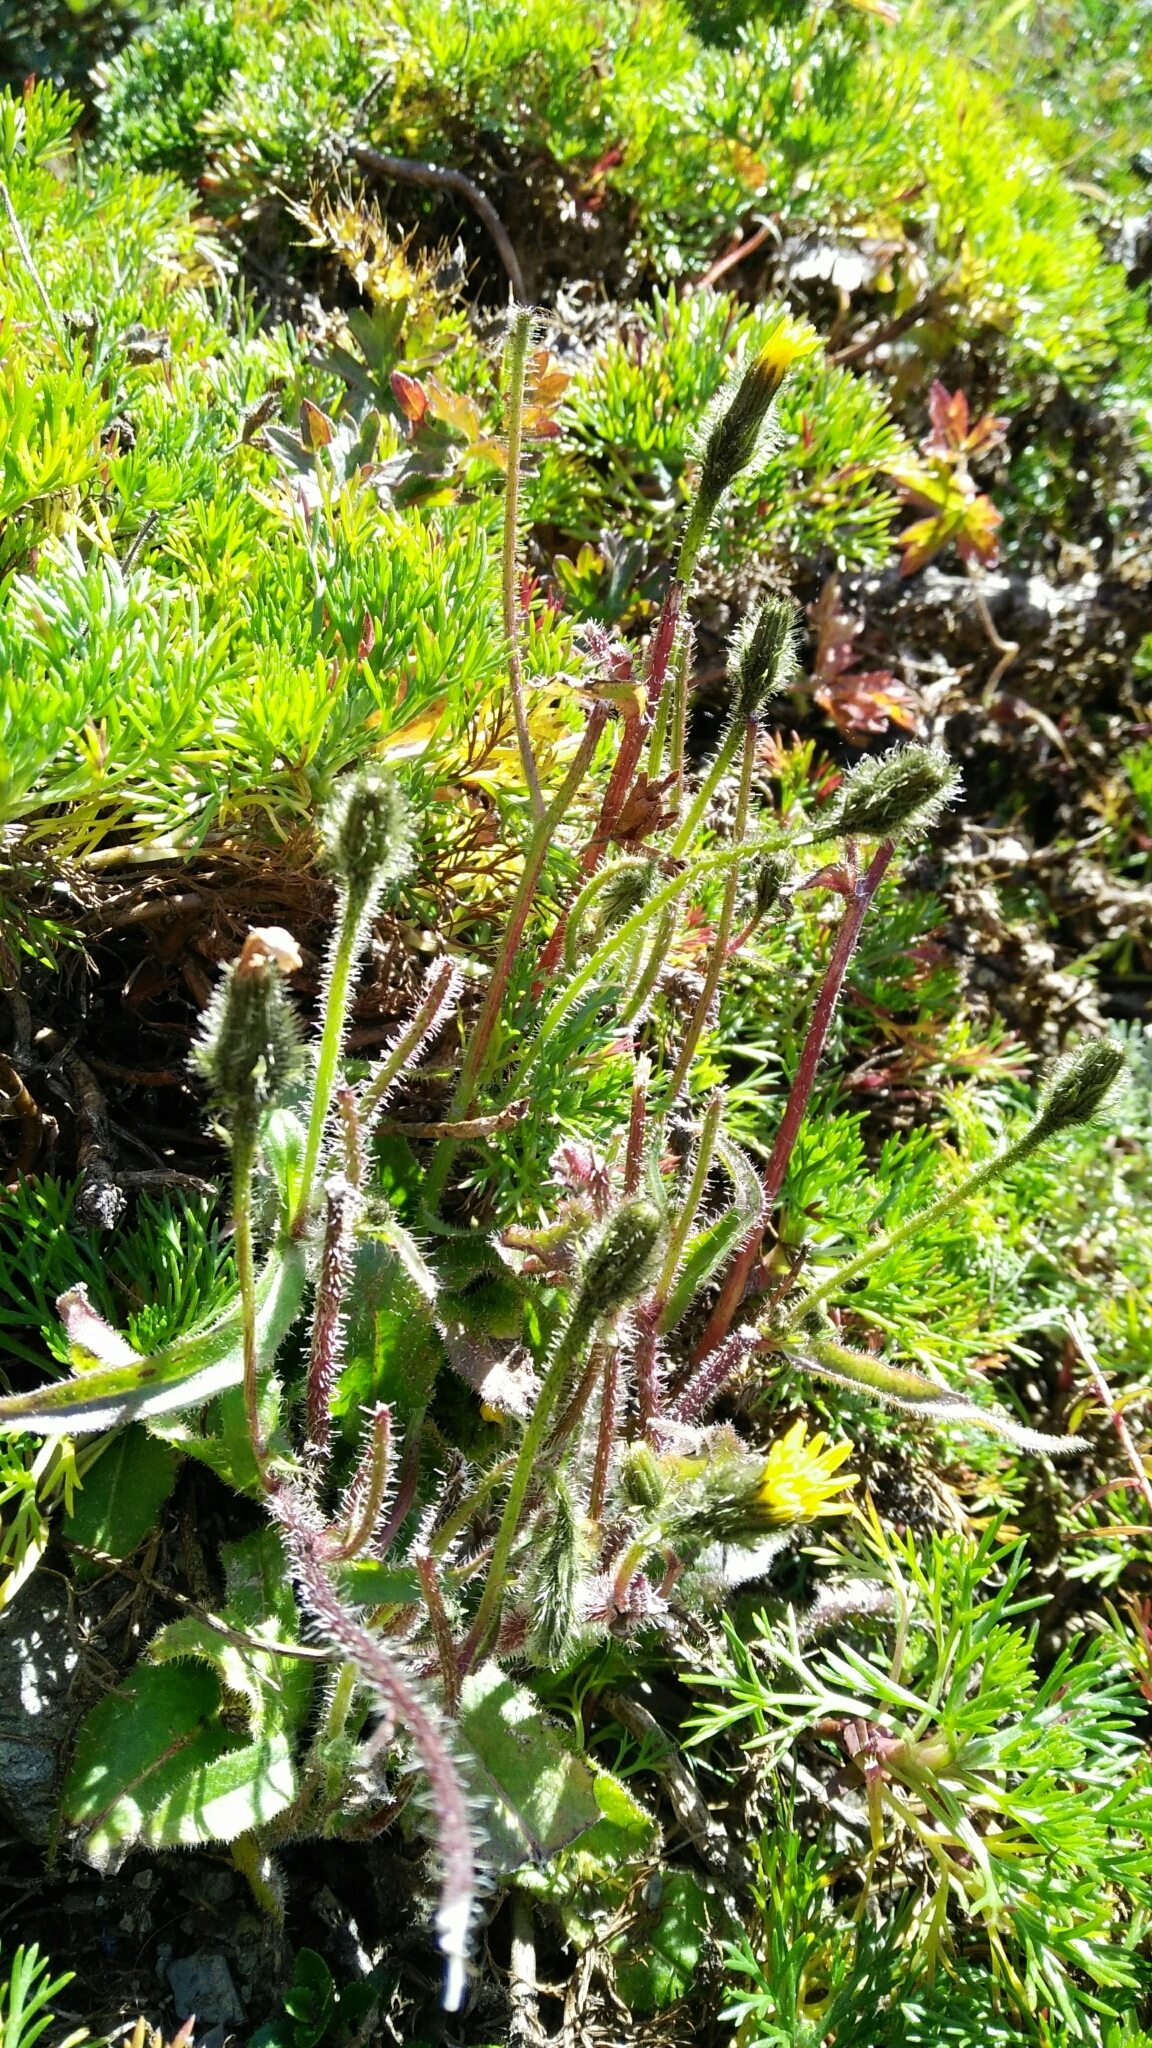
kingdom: Plantae
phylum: Tracheophyta
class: Magnoliopsida
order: Asterales
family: Asteraceae
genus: Picris
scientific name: Picris angustifolia
